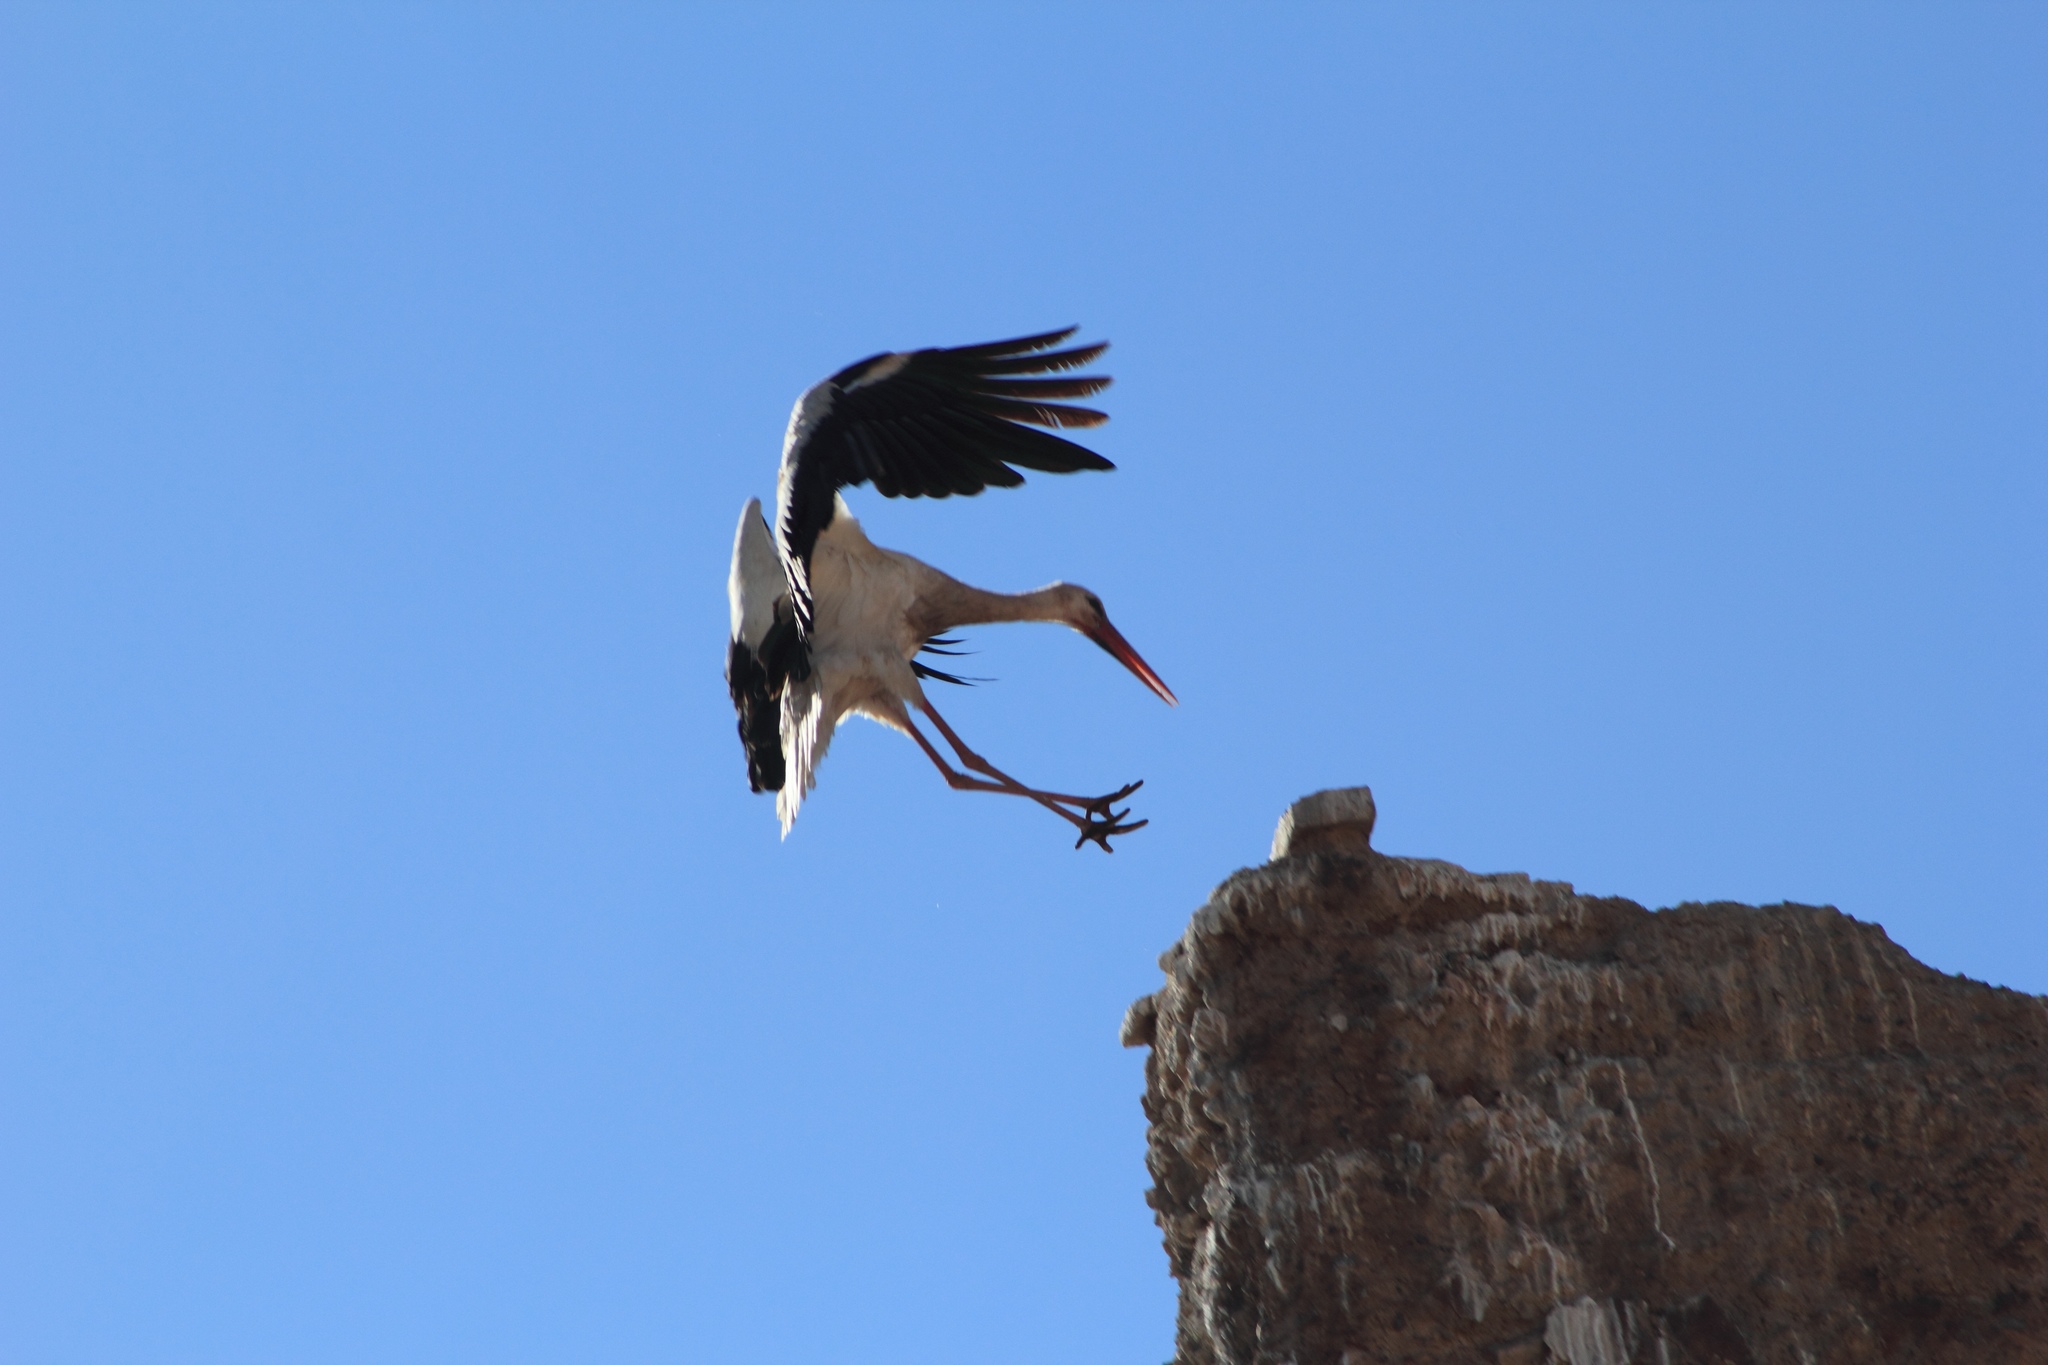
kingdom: Animalia
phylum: Chordata
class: Aves
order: Ciconiiformes
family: Ciconiidae
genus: Ciconia
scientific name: Ciconia ciconia
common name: White stork
